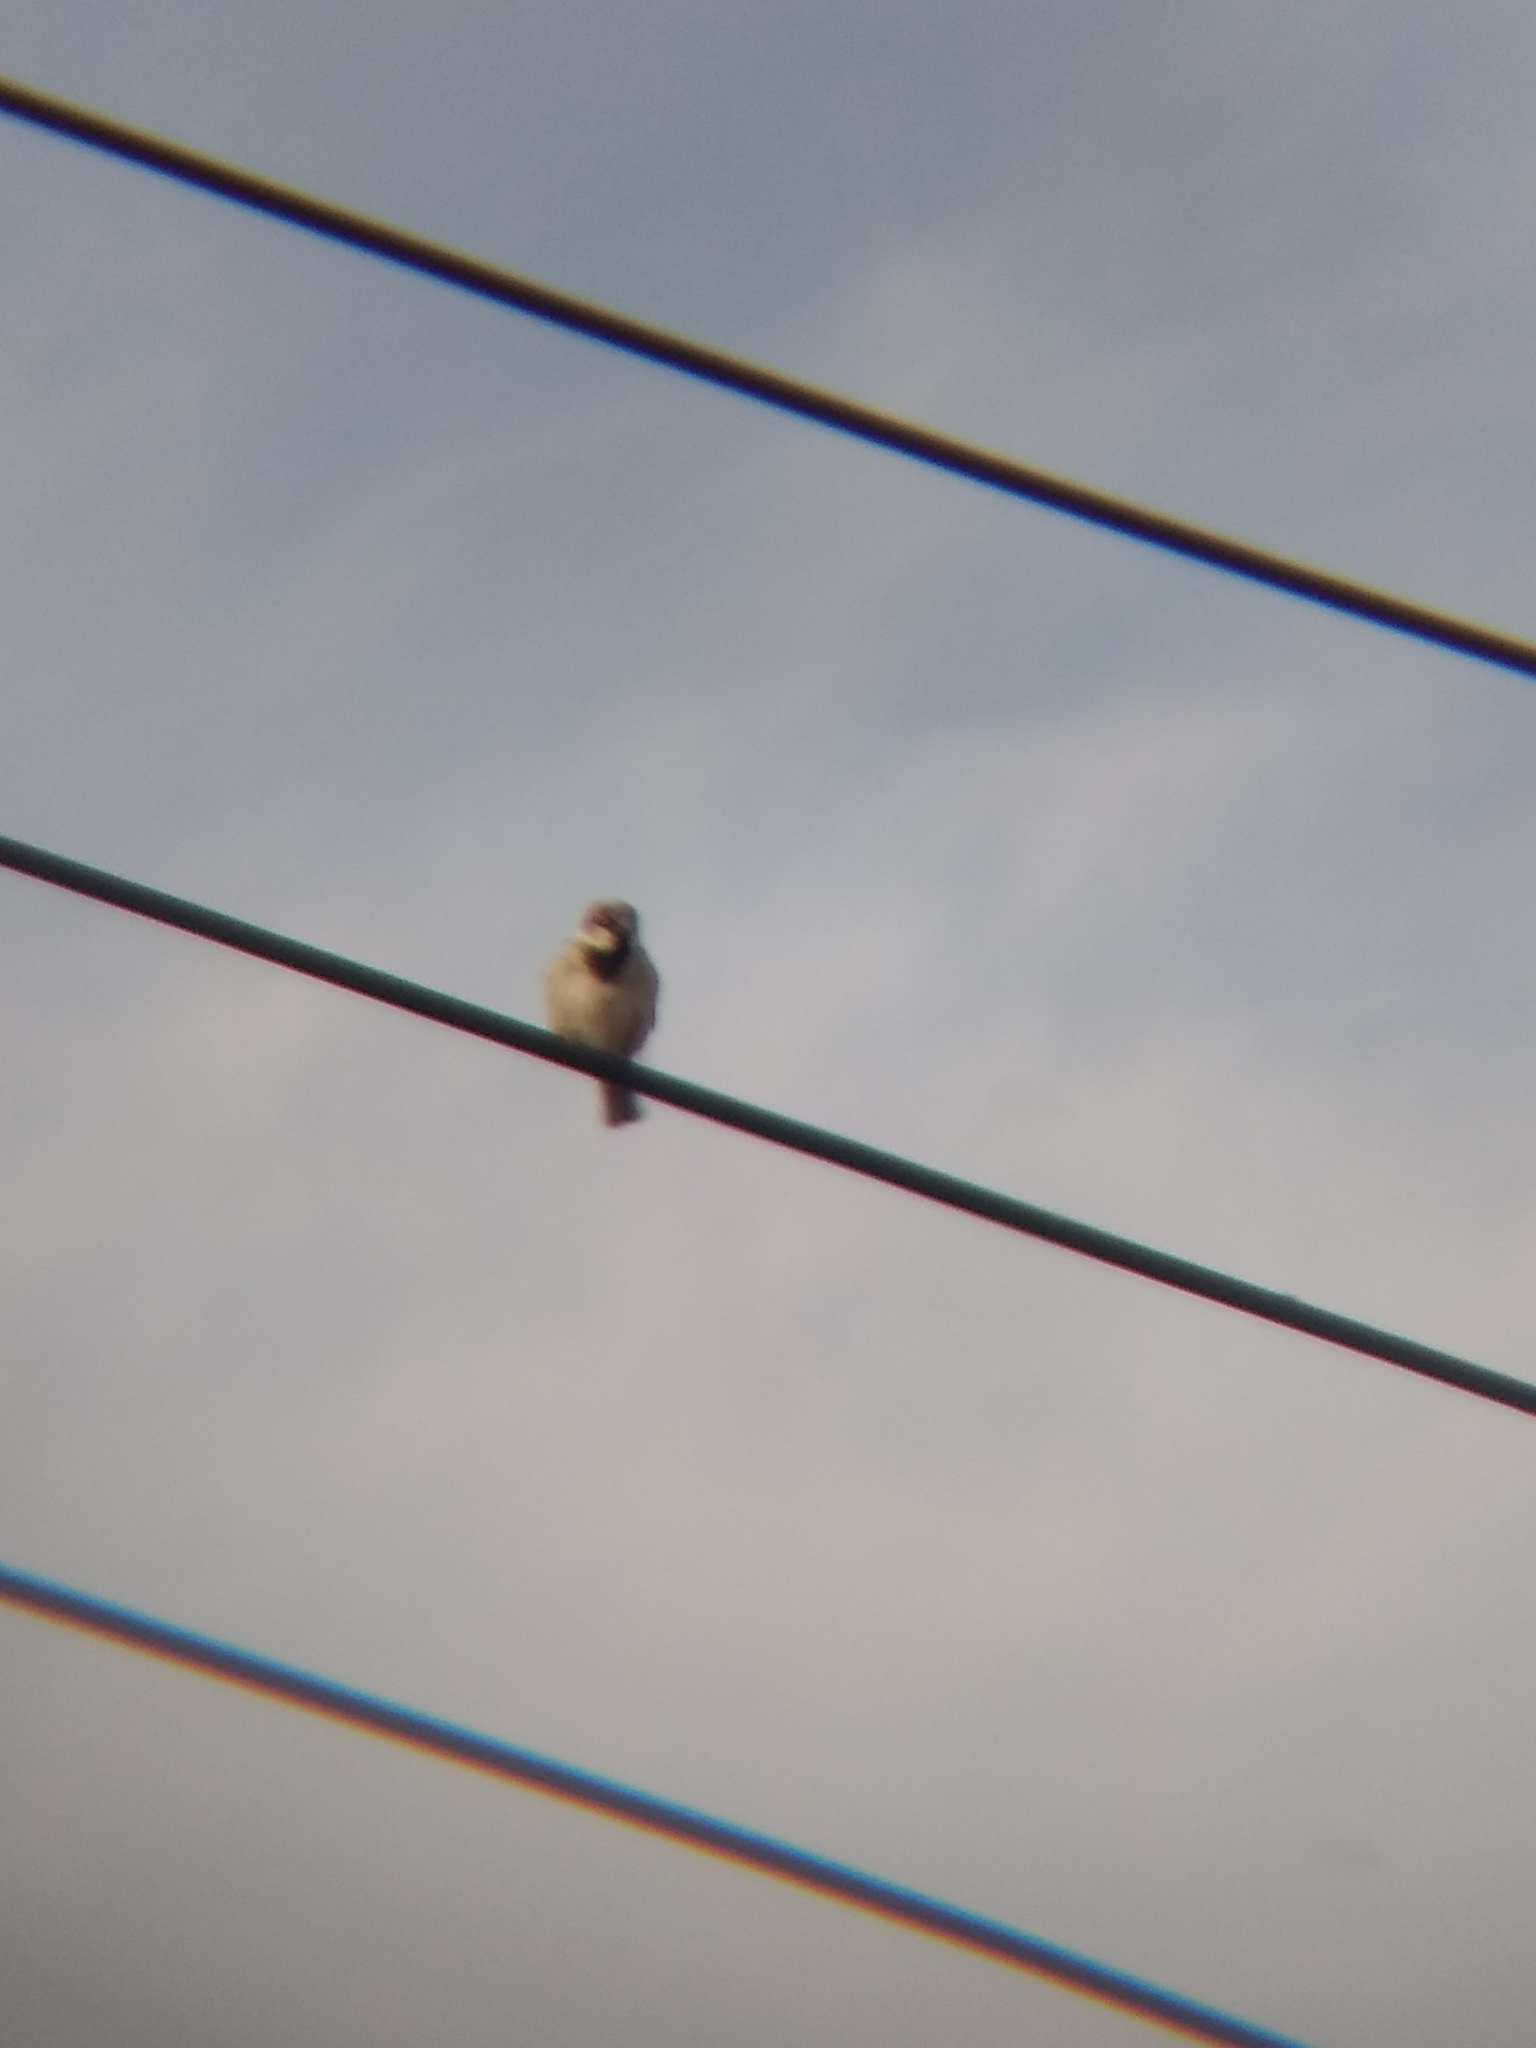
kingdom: Animalia
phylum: Chordata
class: Aves
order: Passeriformes
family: Passeridae
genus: Passer
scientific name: Passer domesticus
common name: House sparrow
